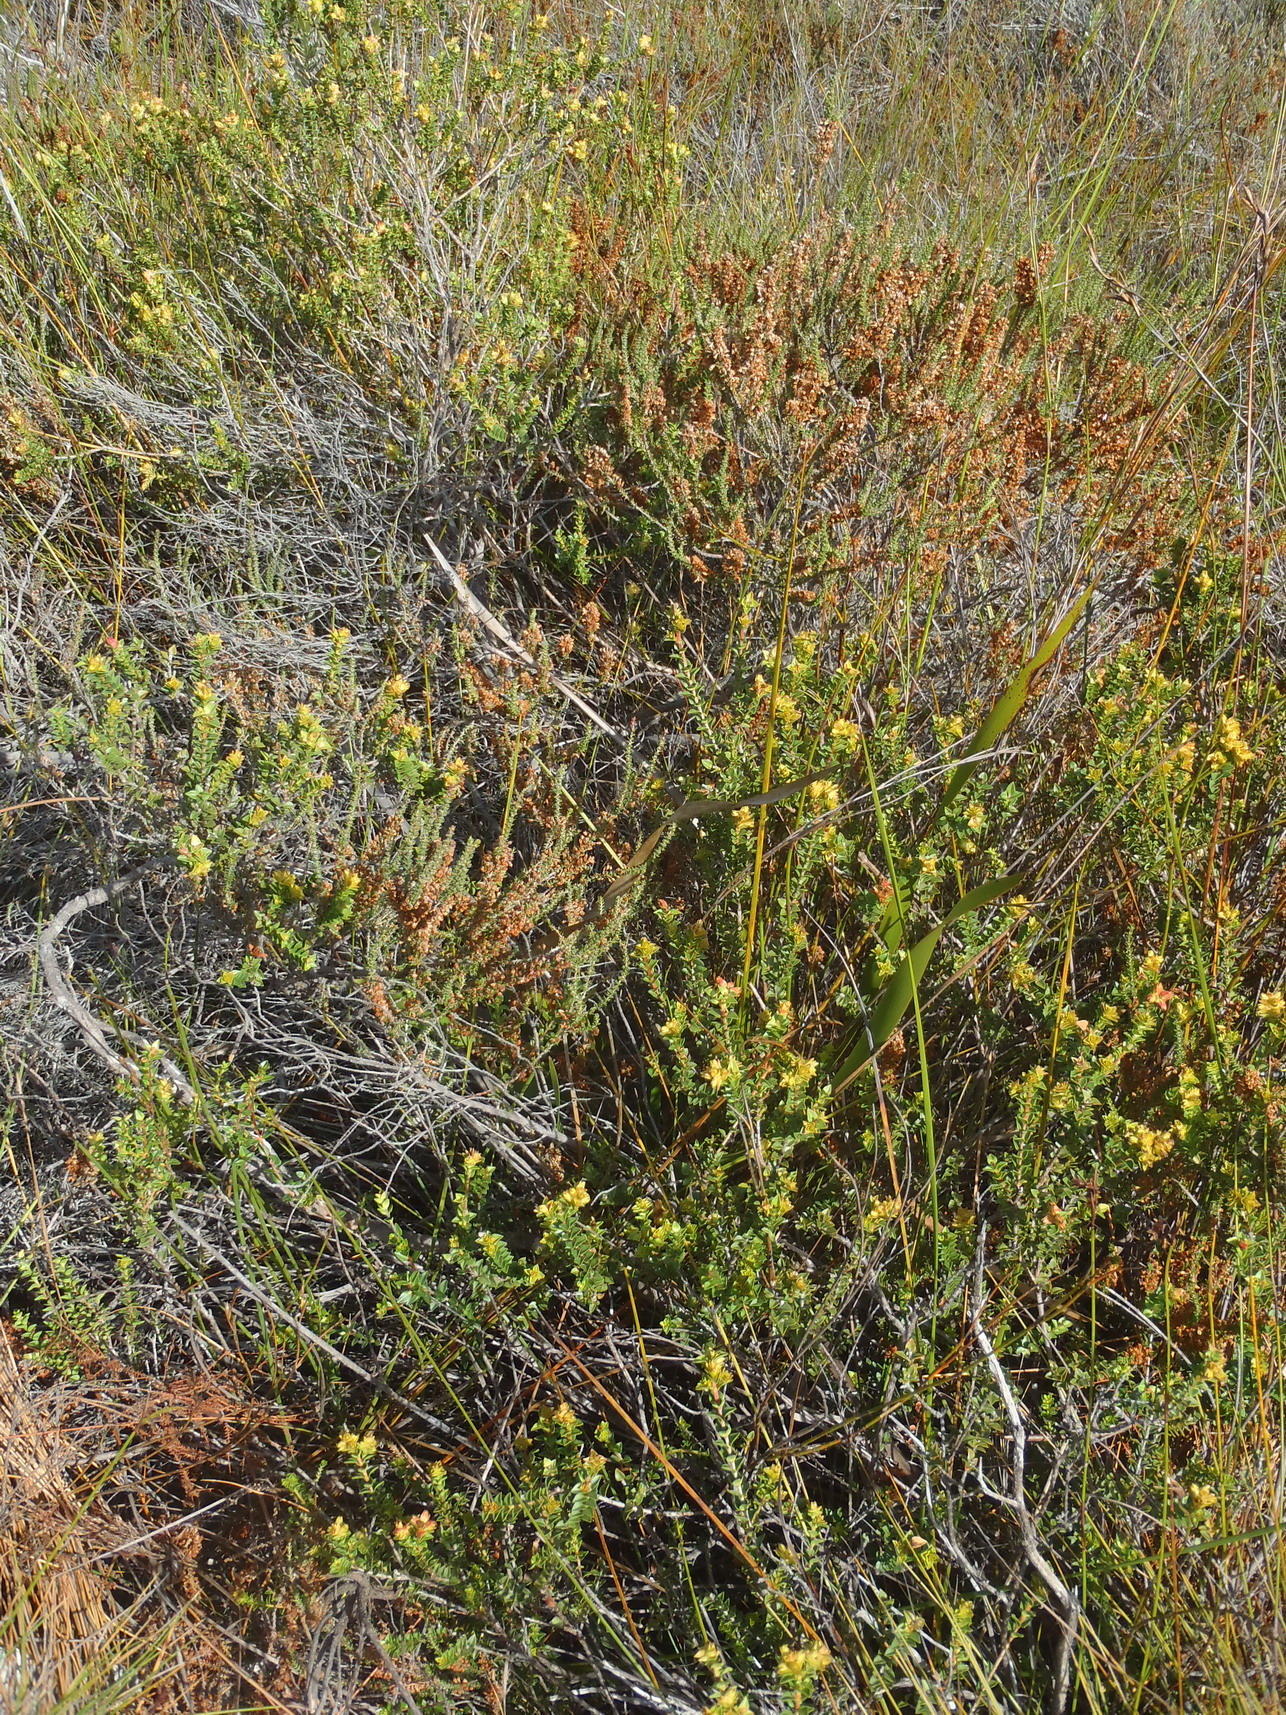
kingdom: Plantae
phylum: Tracheophyta
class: Magnoliopsida
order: Myrtales
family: Penaeaceae
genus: Penaea
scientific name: Penaea cneorum
